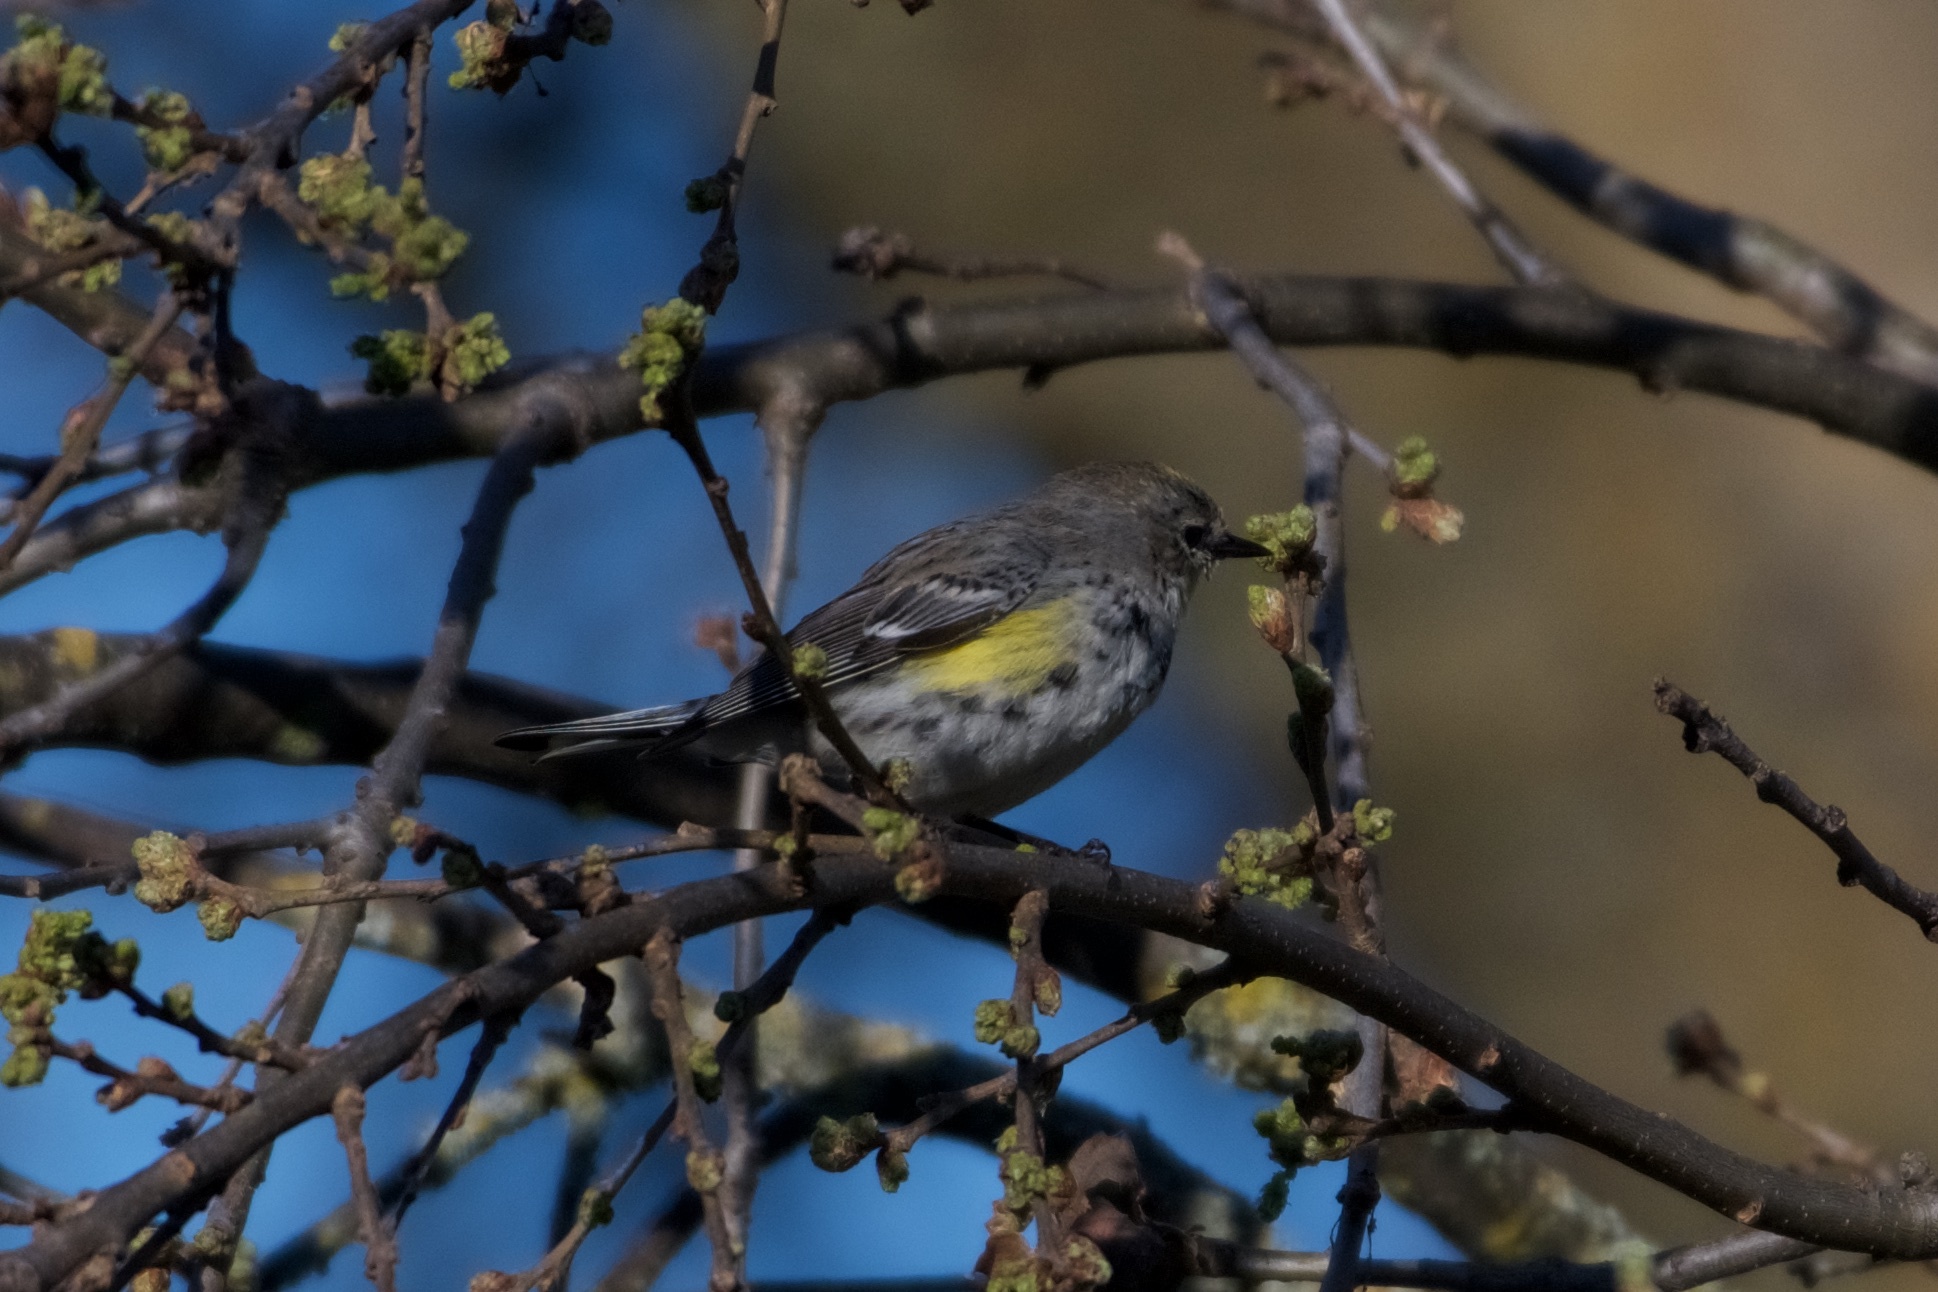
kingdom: Animalia
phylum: Chordata
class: Aves
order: Passeriformes
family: Parulidae
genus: Setophaga
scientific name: Setophaga coronata
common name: Myrtle warbler
